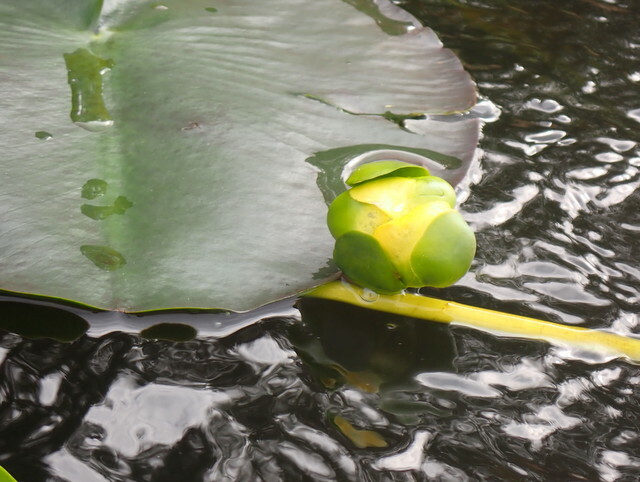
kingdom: Plantae
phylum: Tracheophyta
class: Magnoliopsida
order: Nymphaeales
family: Nymphaeaceae
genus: Nuphar
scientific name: Nuphar advena
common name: Spatter-dock
